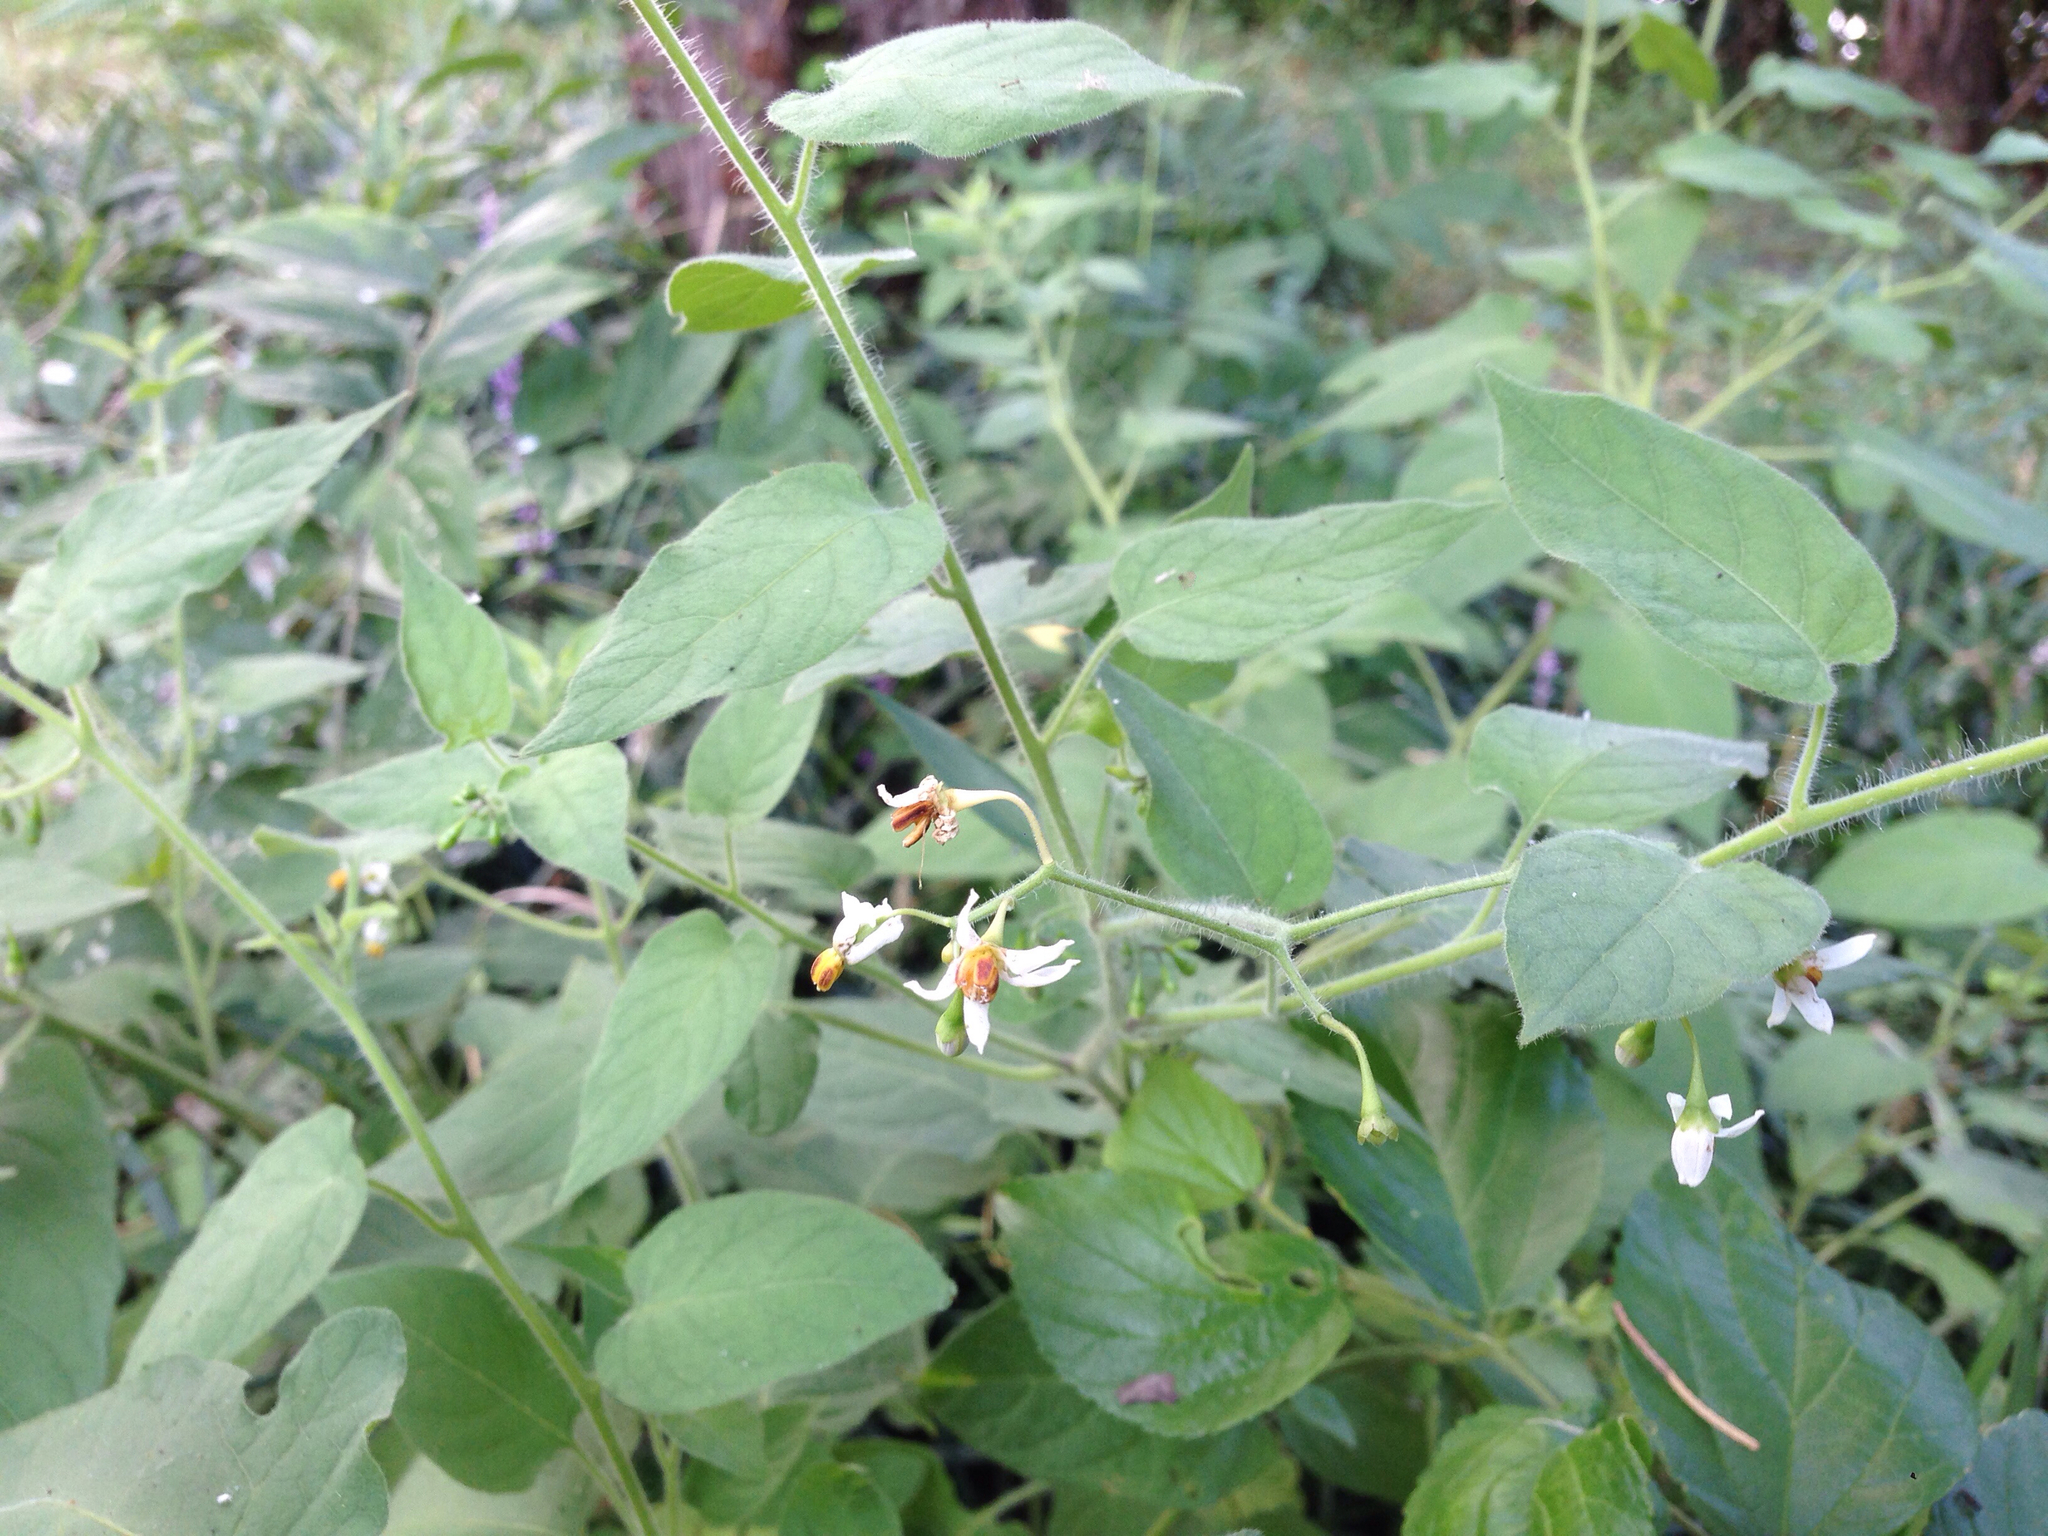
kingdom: Plantae
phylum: Tracheophyta
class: Magnoliopsida
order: Solanales
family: Solanaceae
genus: Solanum
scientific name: Solanum lyratum
